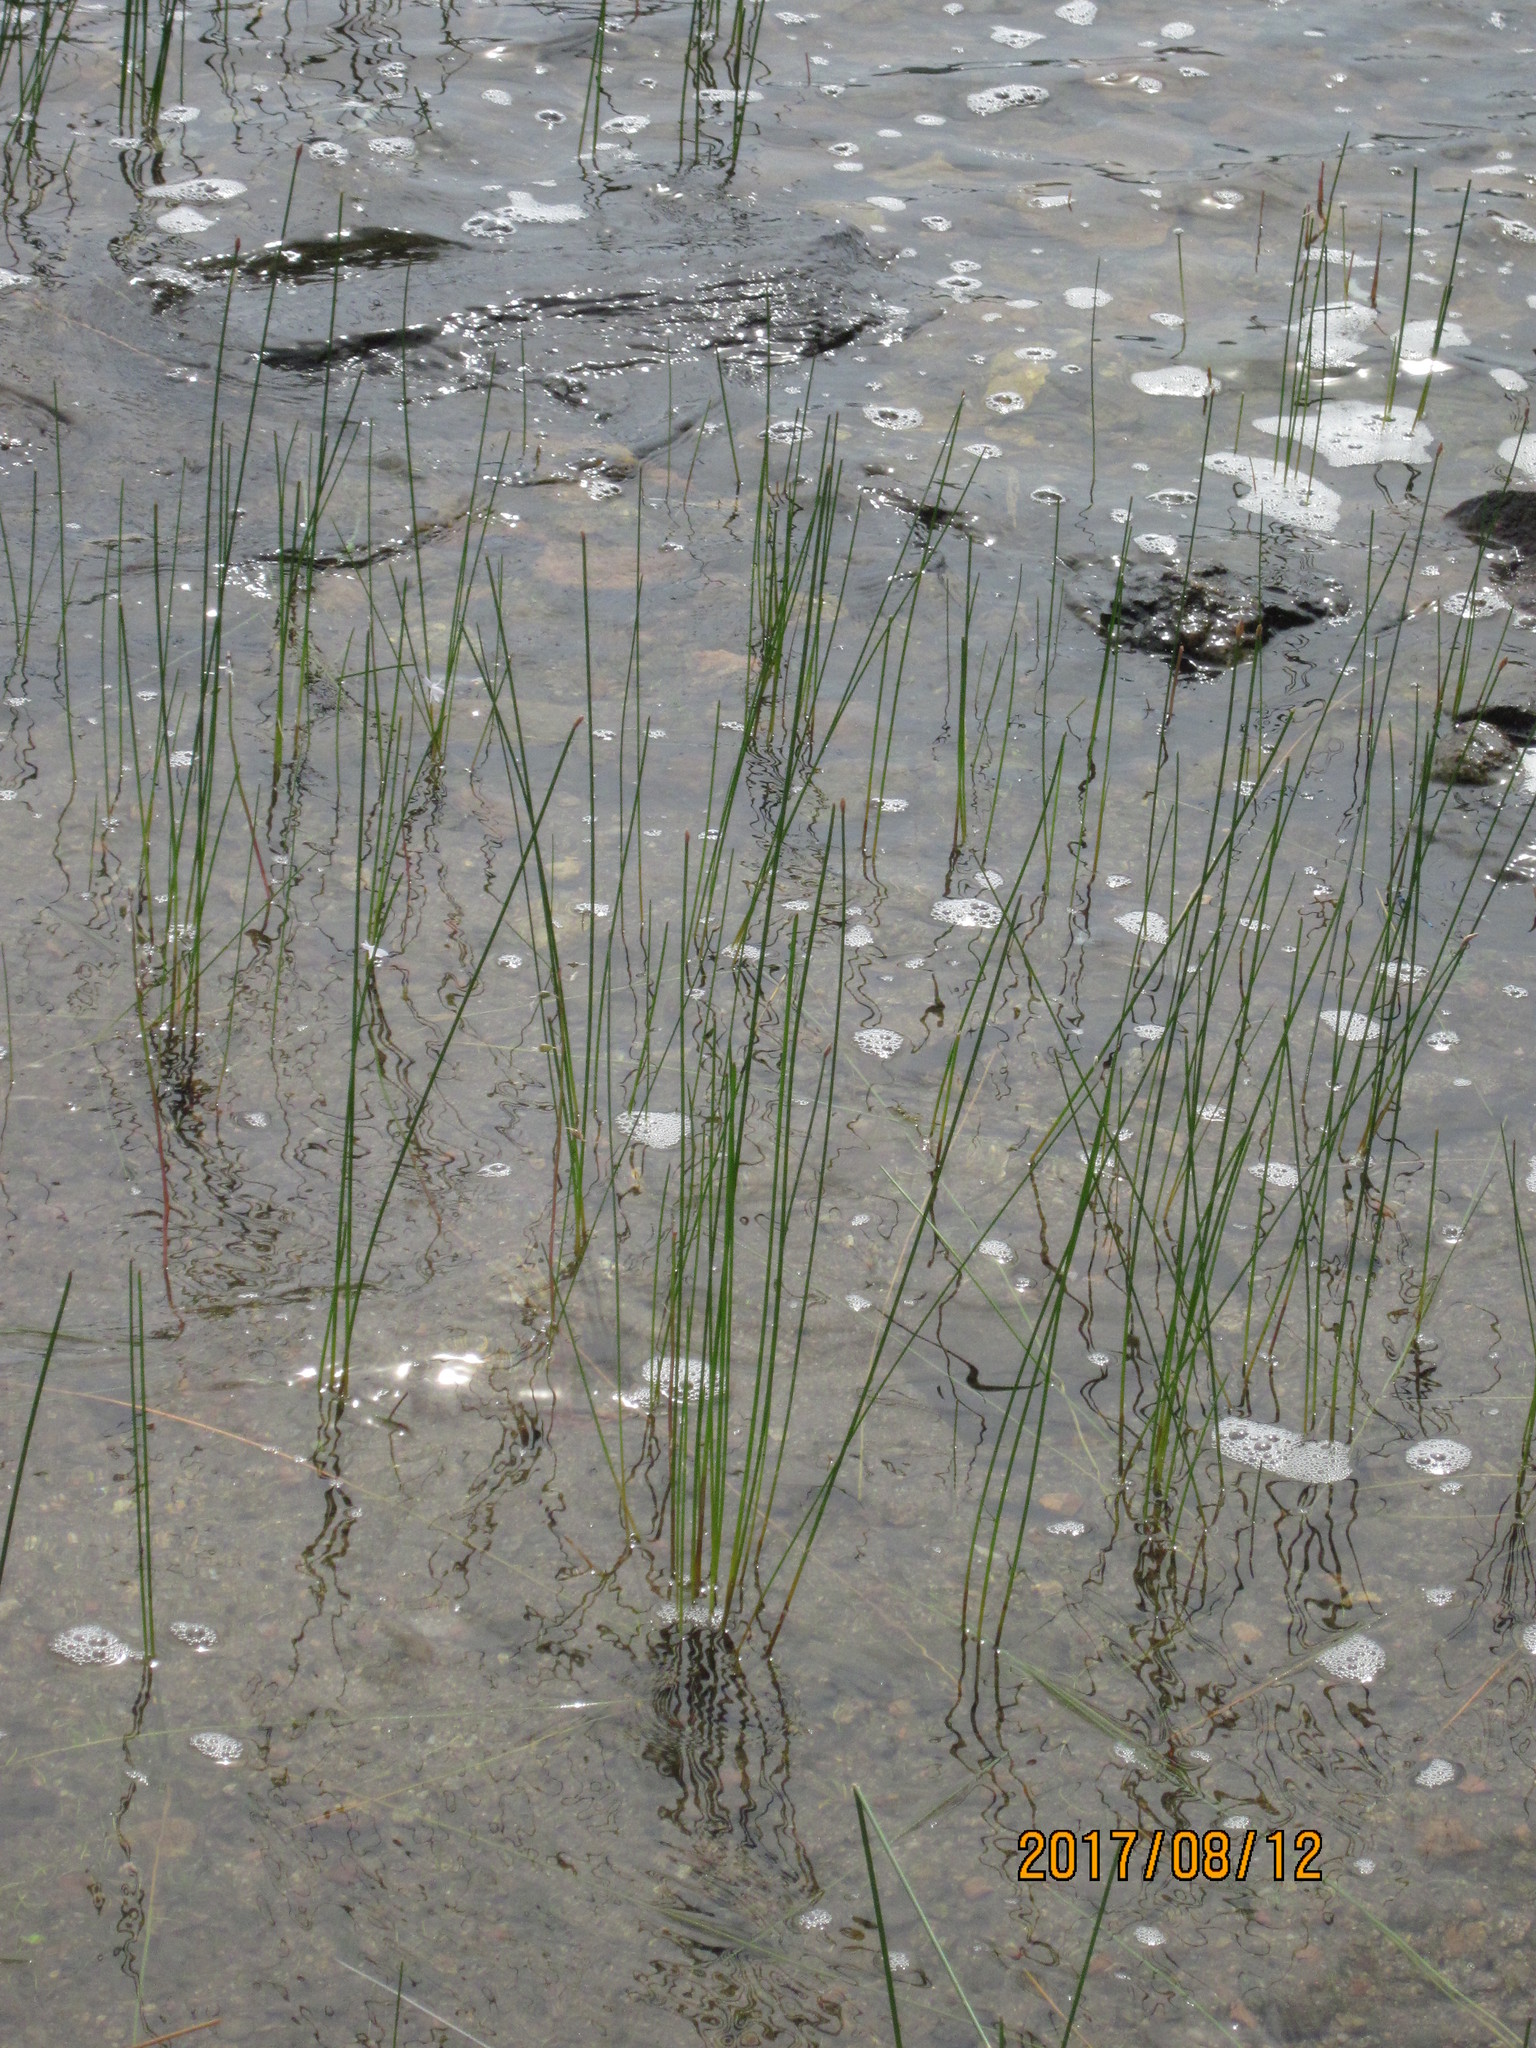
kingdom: Plantae
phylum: Tracheophyta
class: Liliopsida
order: Poales
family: Cyperaceae
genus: Eleocharis
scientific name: Eleocharis palustris
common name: Common spike-rush
